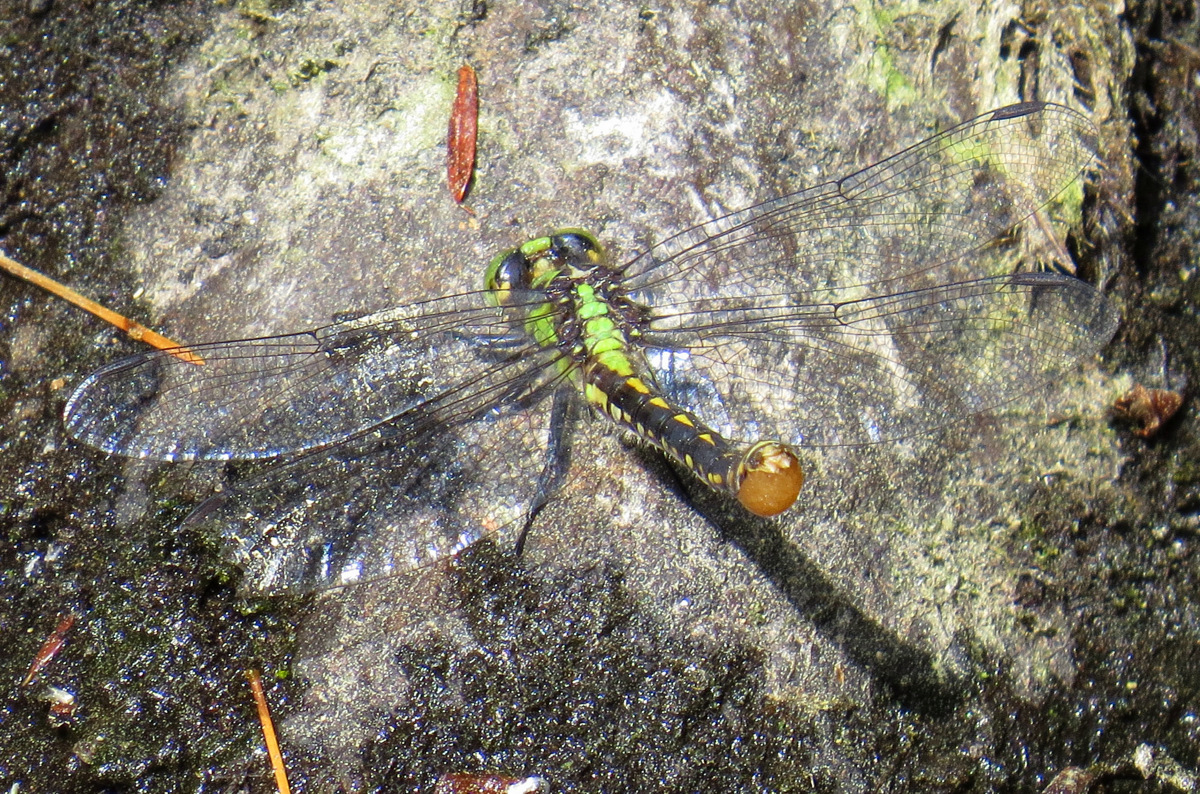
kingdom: Animalia
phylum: Arthropoda
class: Insecta
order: Odonata
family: Gomphidae
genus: Ophiogomphus
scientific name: Ophiogomphus mainensis
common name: Maine snaketail
